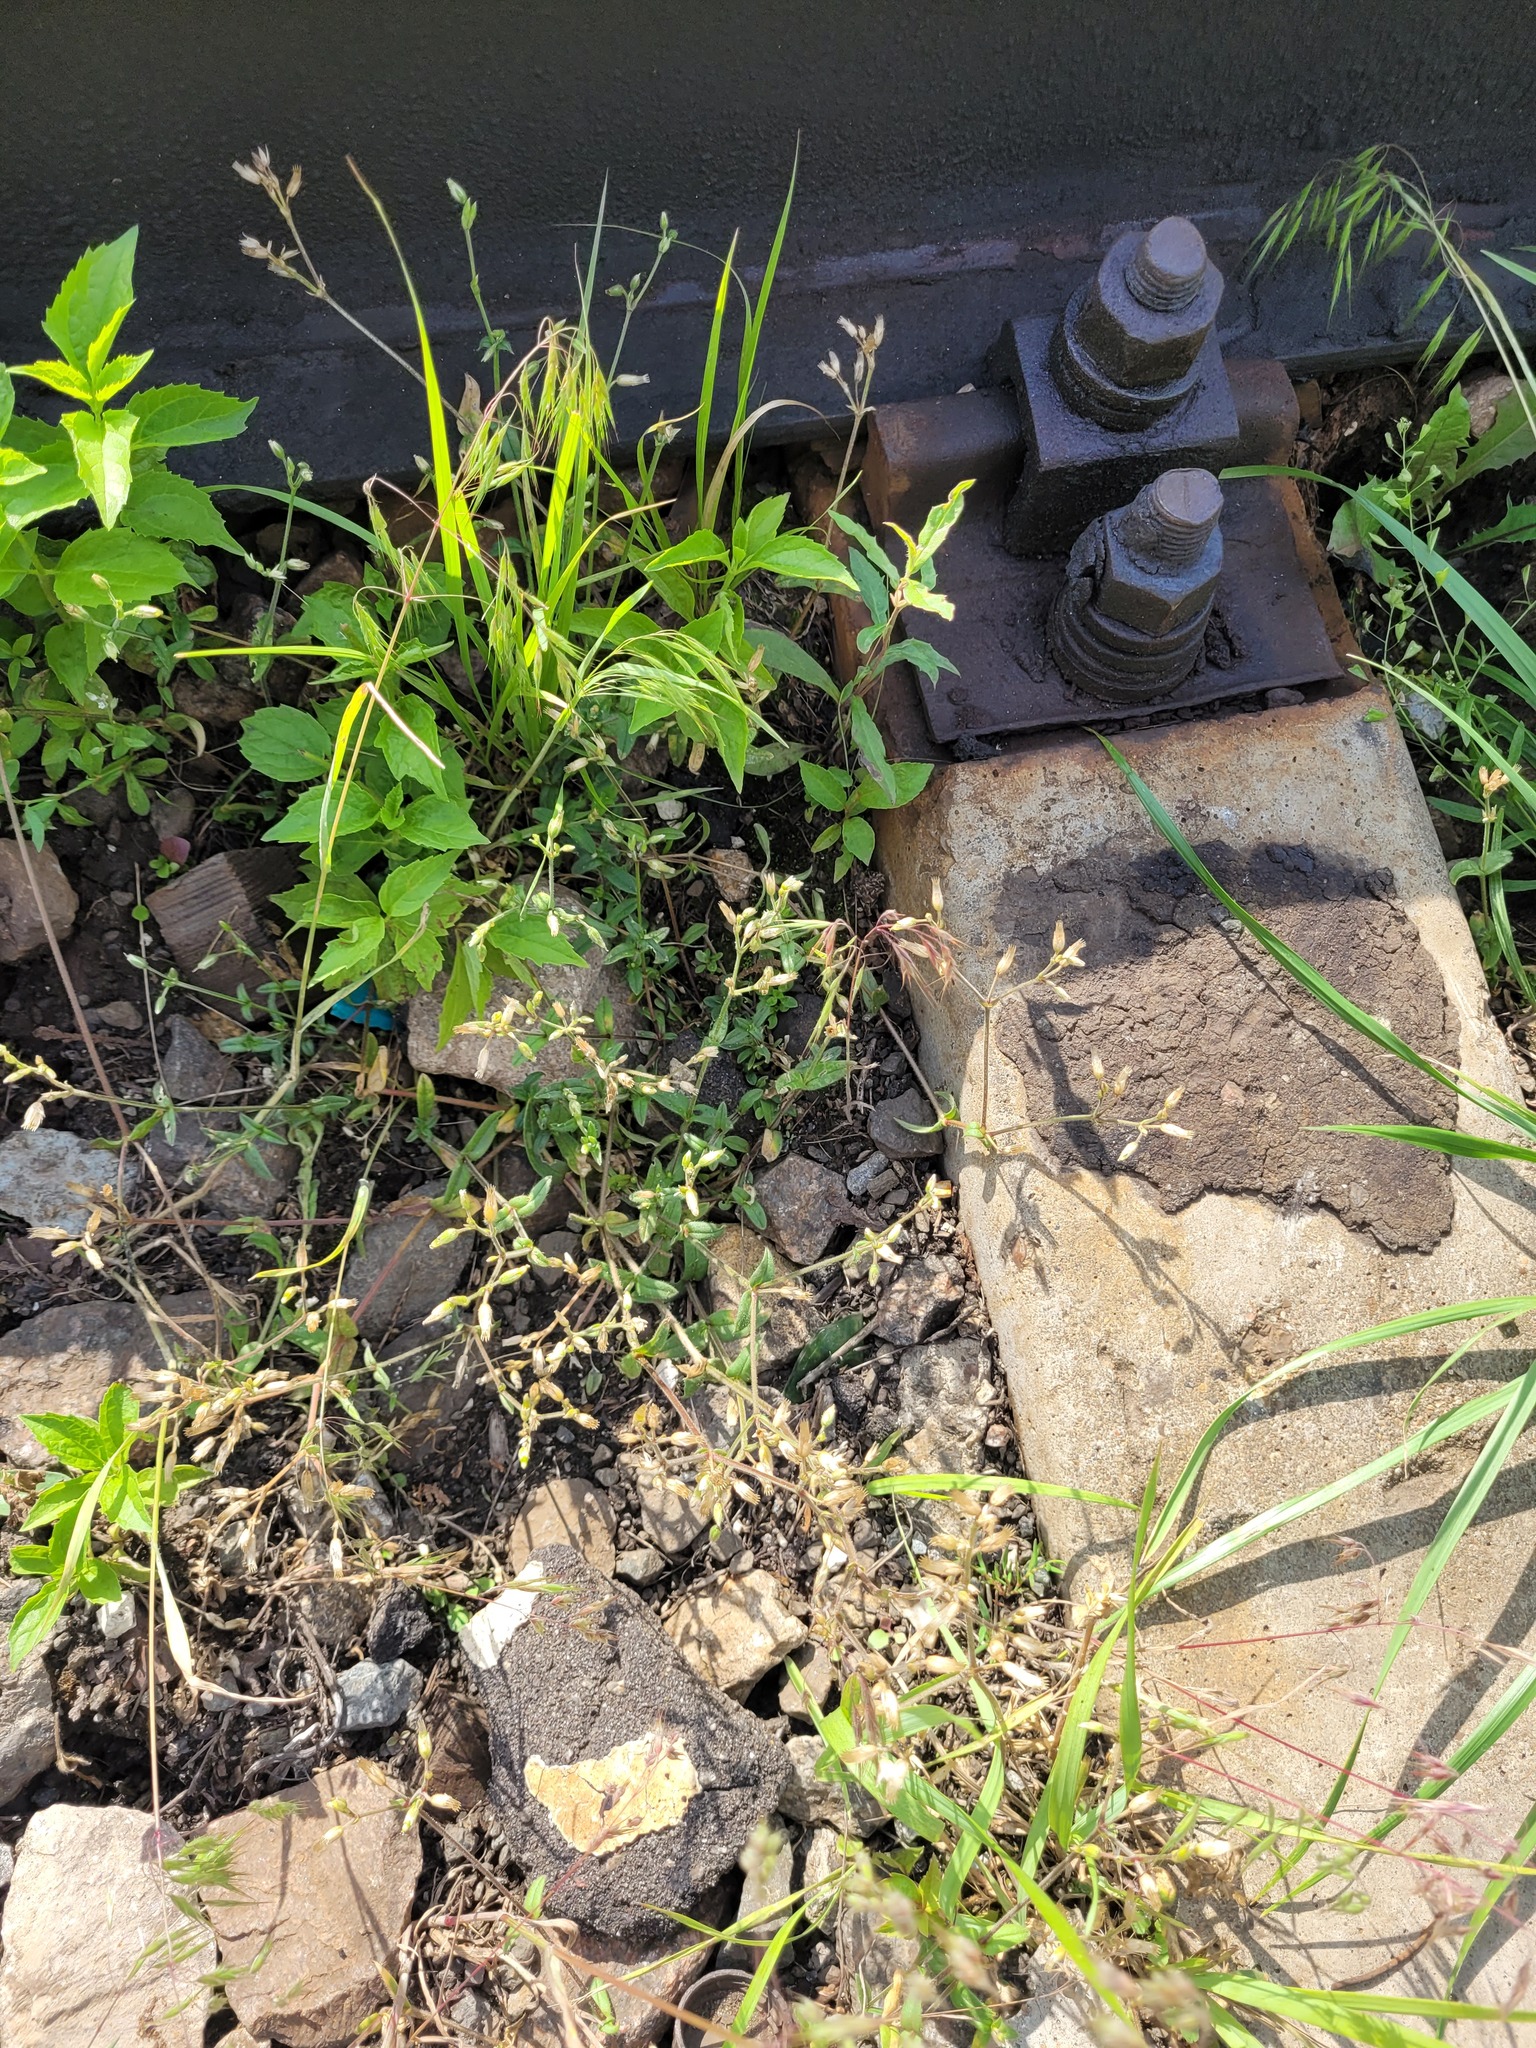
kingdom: Plantae
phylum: Tracheophyta
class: Magnoliopsida
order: Caryophyllales
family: Caryophyllaceae
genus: Cerastium
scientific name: Cerastium holosteoides
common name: Big chickweed
